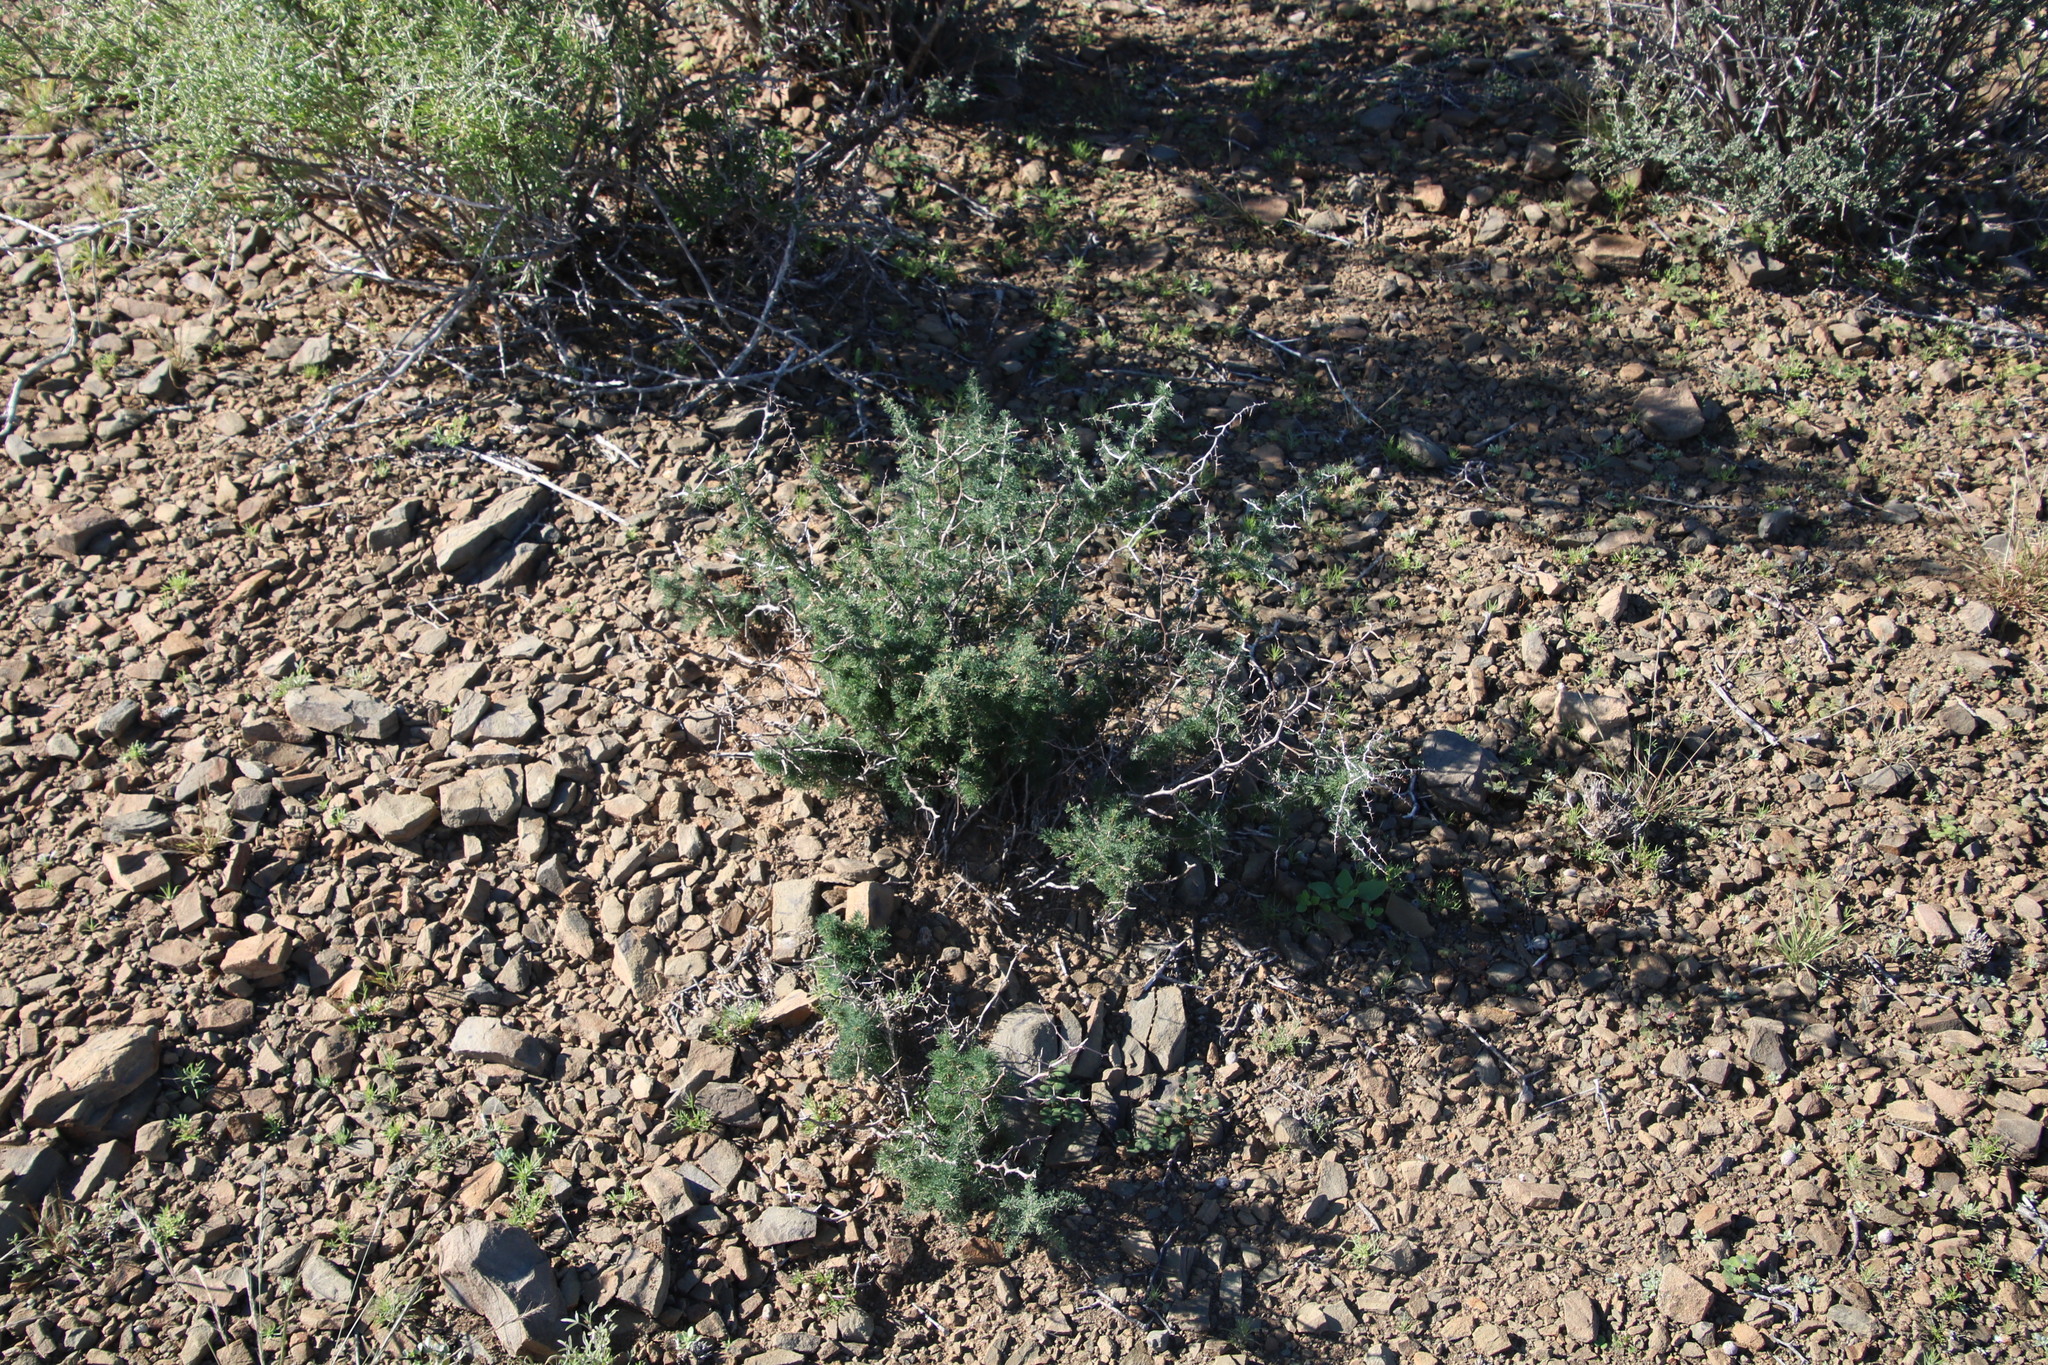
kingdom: Plantae
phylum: Tracheophyta
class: Liliopsida
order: Asparagales
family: Asparagaceae
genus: Asparagus
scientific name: Asparagus suaveolens
